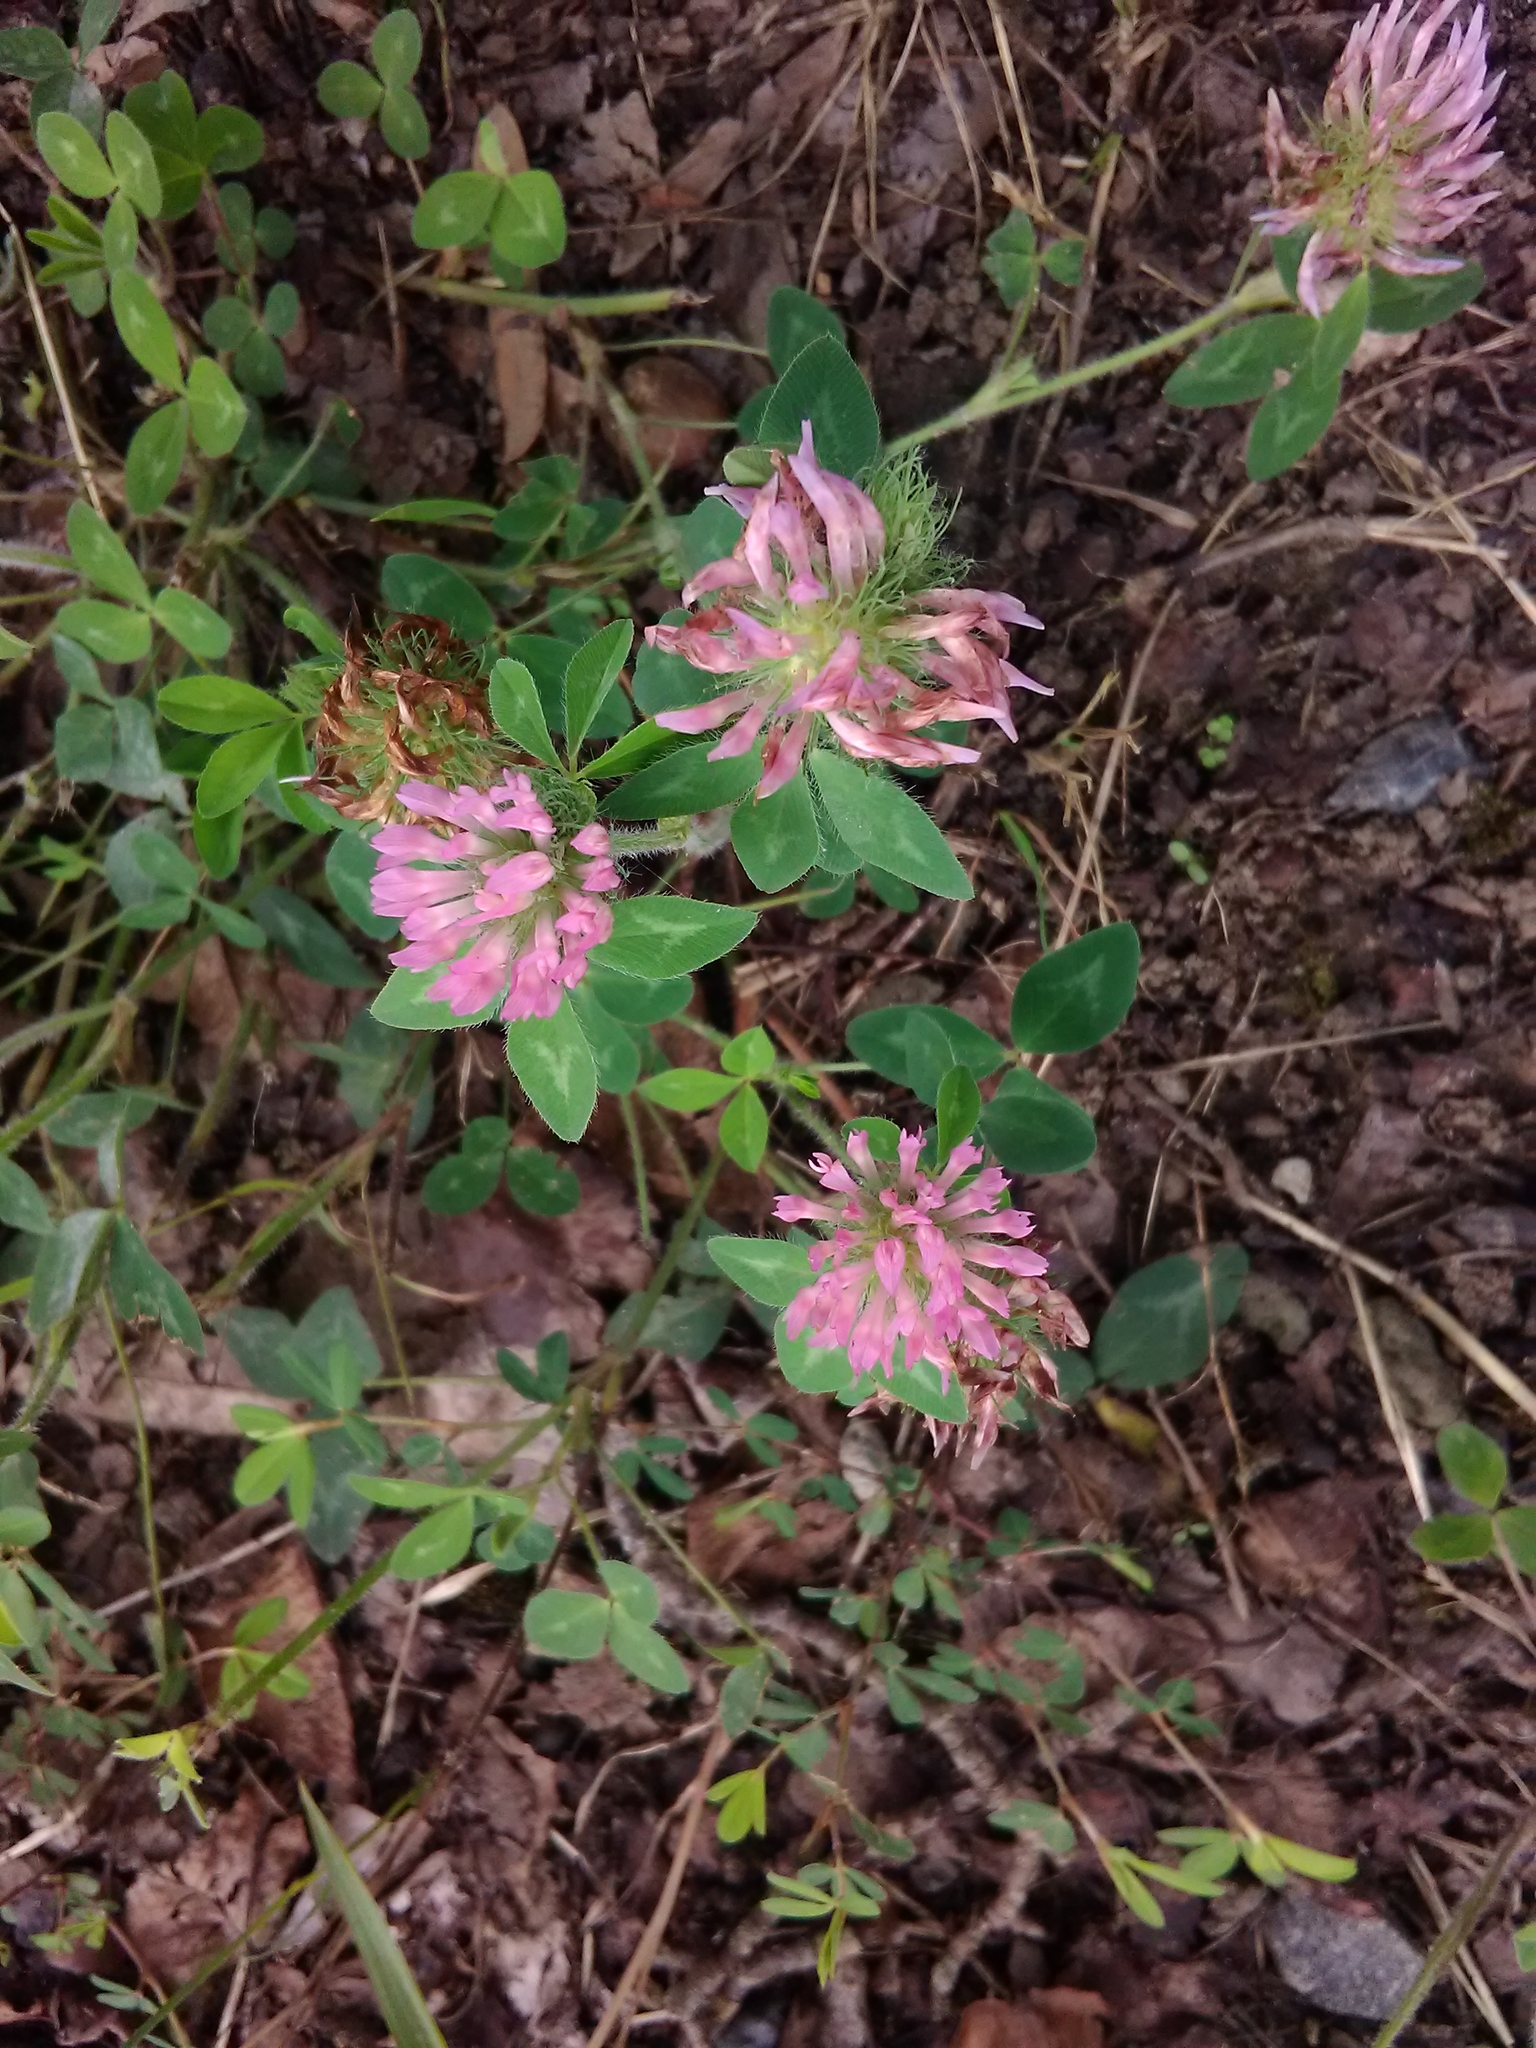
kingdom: Plantae
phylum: Tracheophyta
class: Magnoliopsida
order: Fabales
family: Fabaceae
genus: Trifolium
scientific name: Trifolium pratense
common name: Red clover
